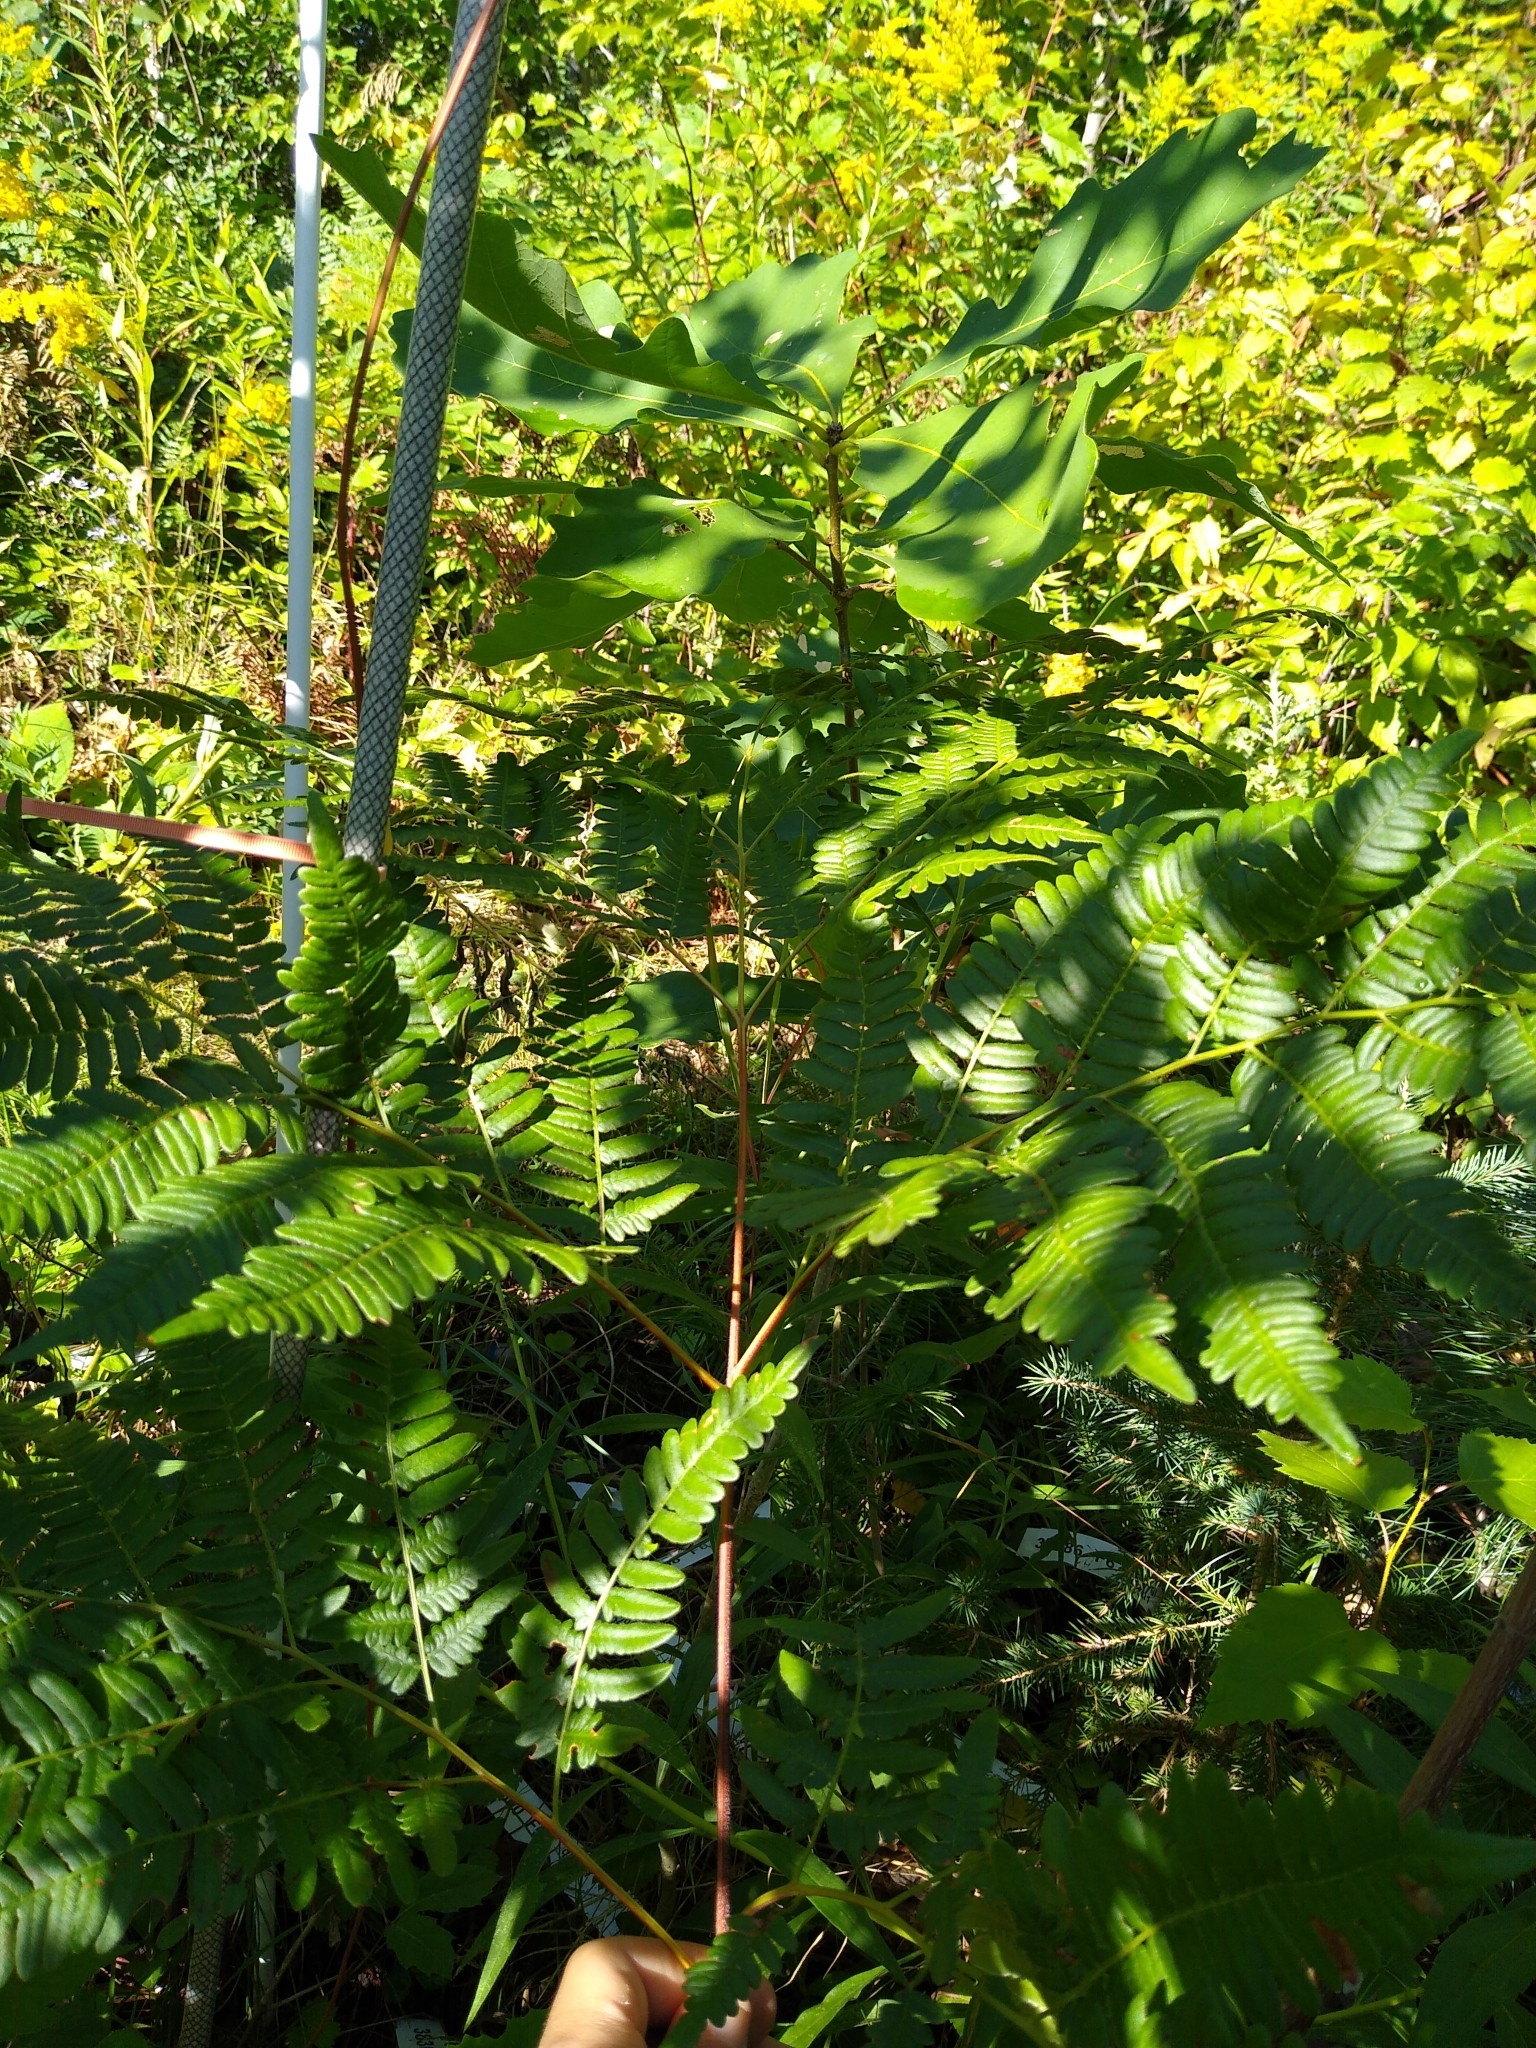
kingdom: Plantae
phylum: Tracheophyta
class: Polypodiopsida
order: Polypodiales
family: Dennstaedtiaceae
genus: Pteridium
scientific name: Pteridium aquilinum
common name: Bracken
